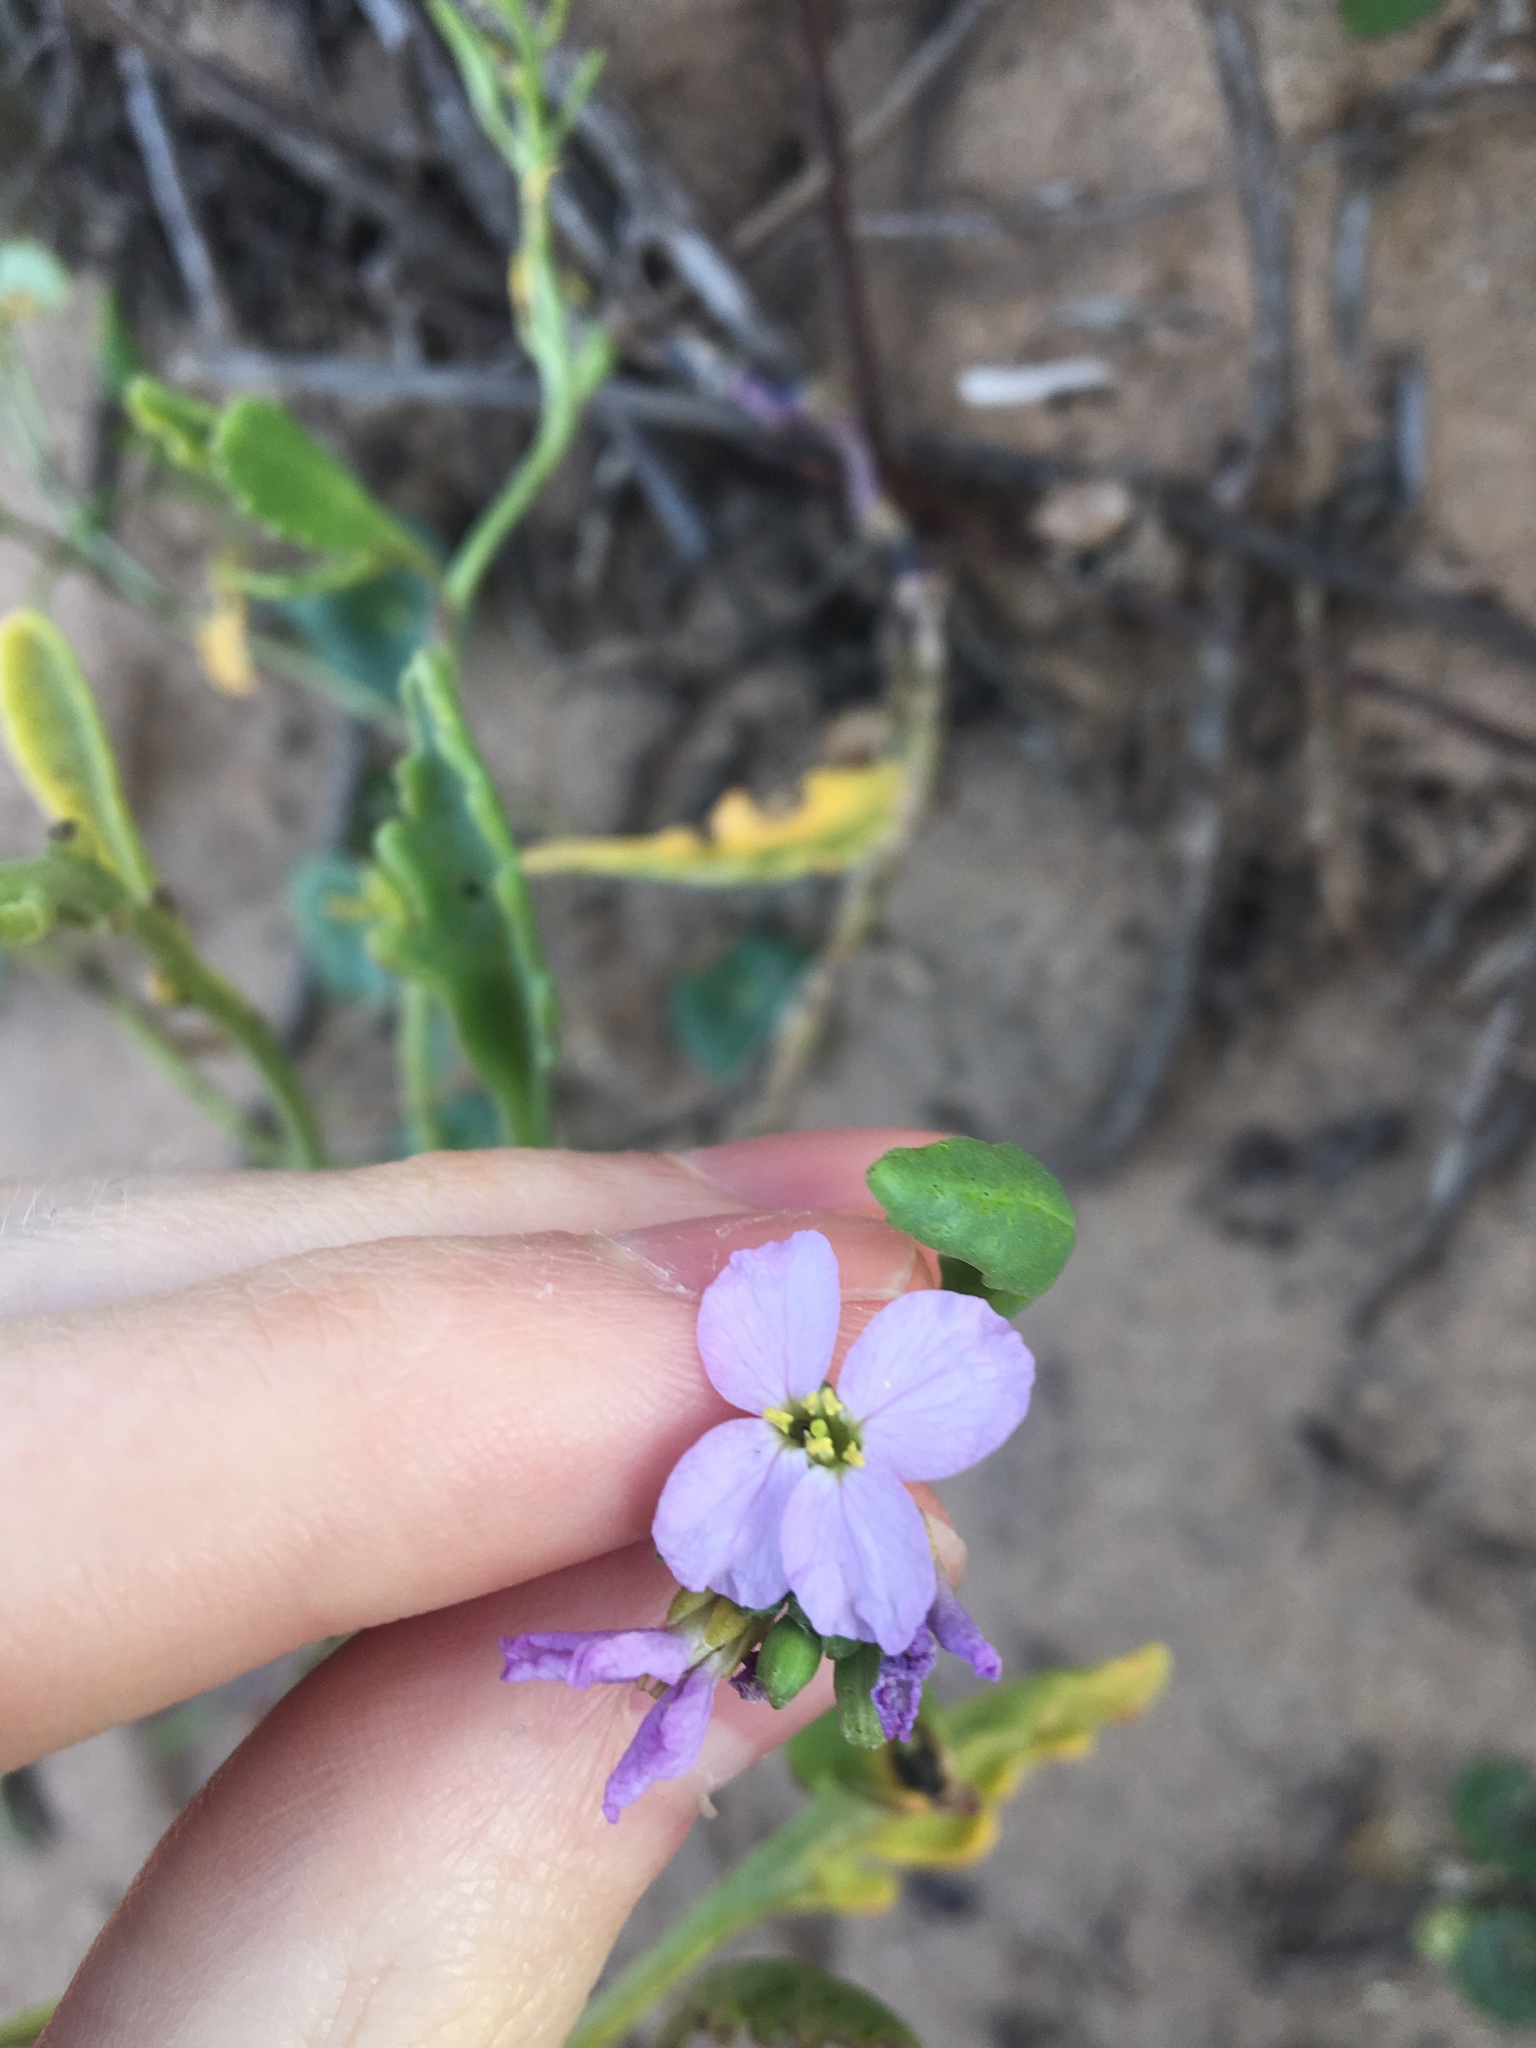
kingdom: Plantae
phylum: Tracheophyta
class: Magnoliopsida
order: Brassicales
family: Brassicaceae
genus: Cakile
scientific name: Cakile maritima
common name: Sea rocket
